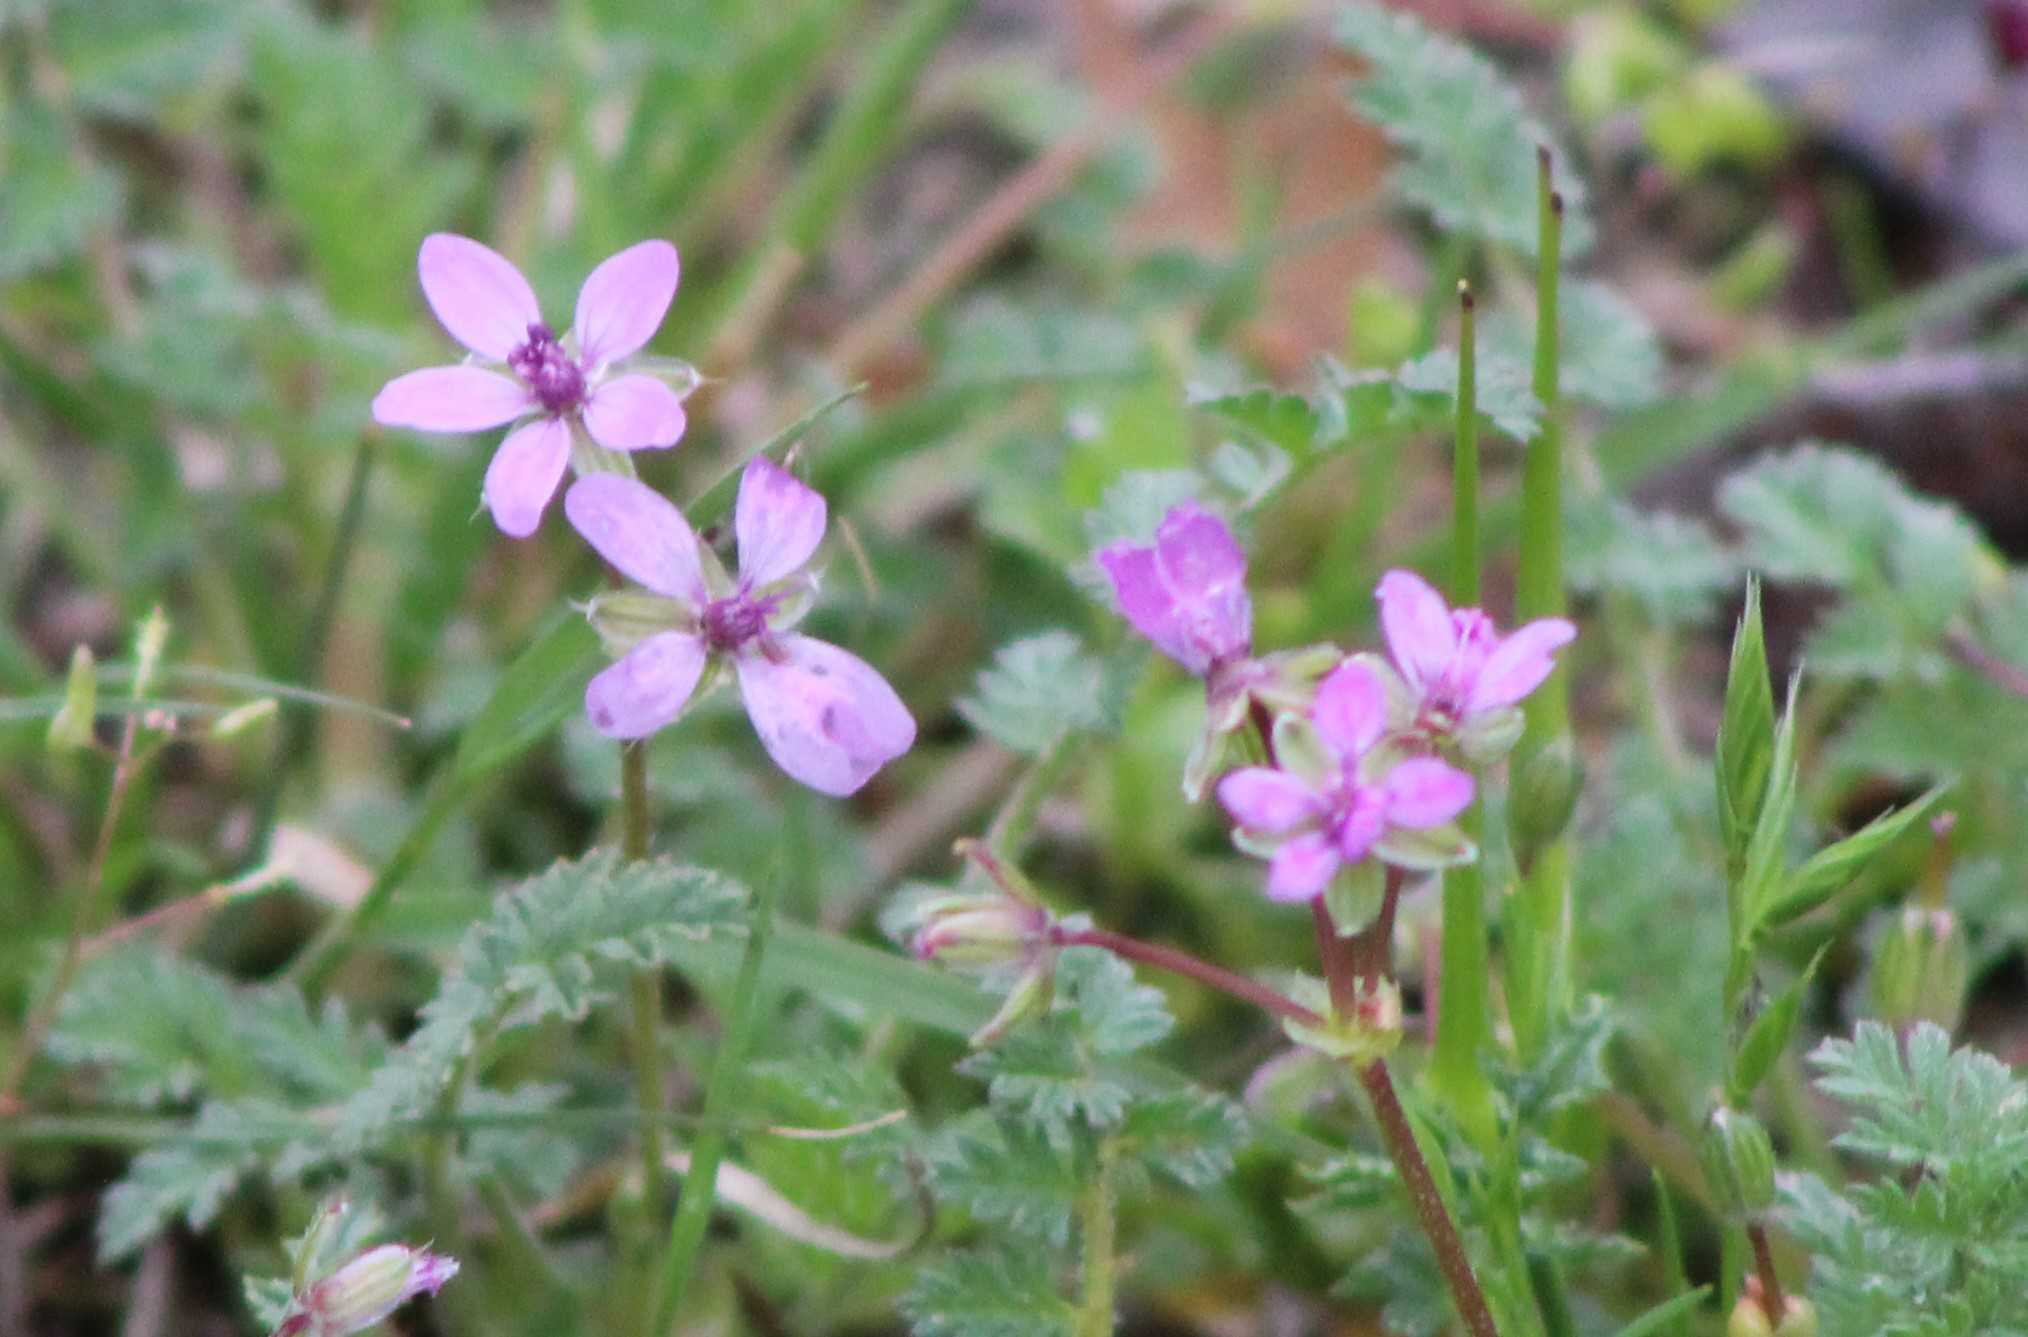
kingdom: Plantae
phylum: Tracheophyta
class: Magnoliopsida
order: Geraniales
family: Geraniaceae
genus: Erodium
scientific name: Erodium cicutarium
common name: Common stork's-bill
